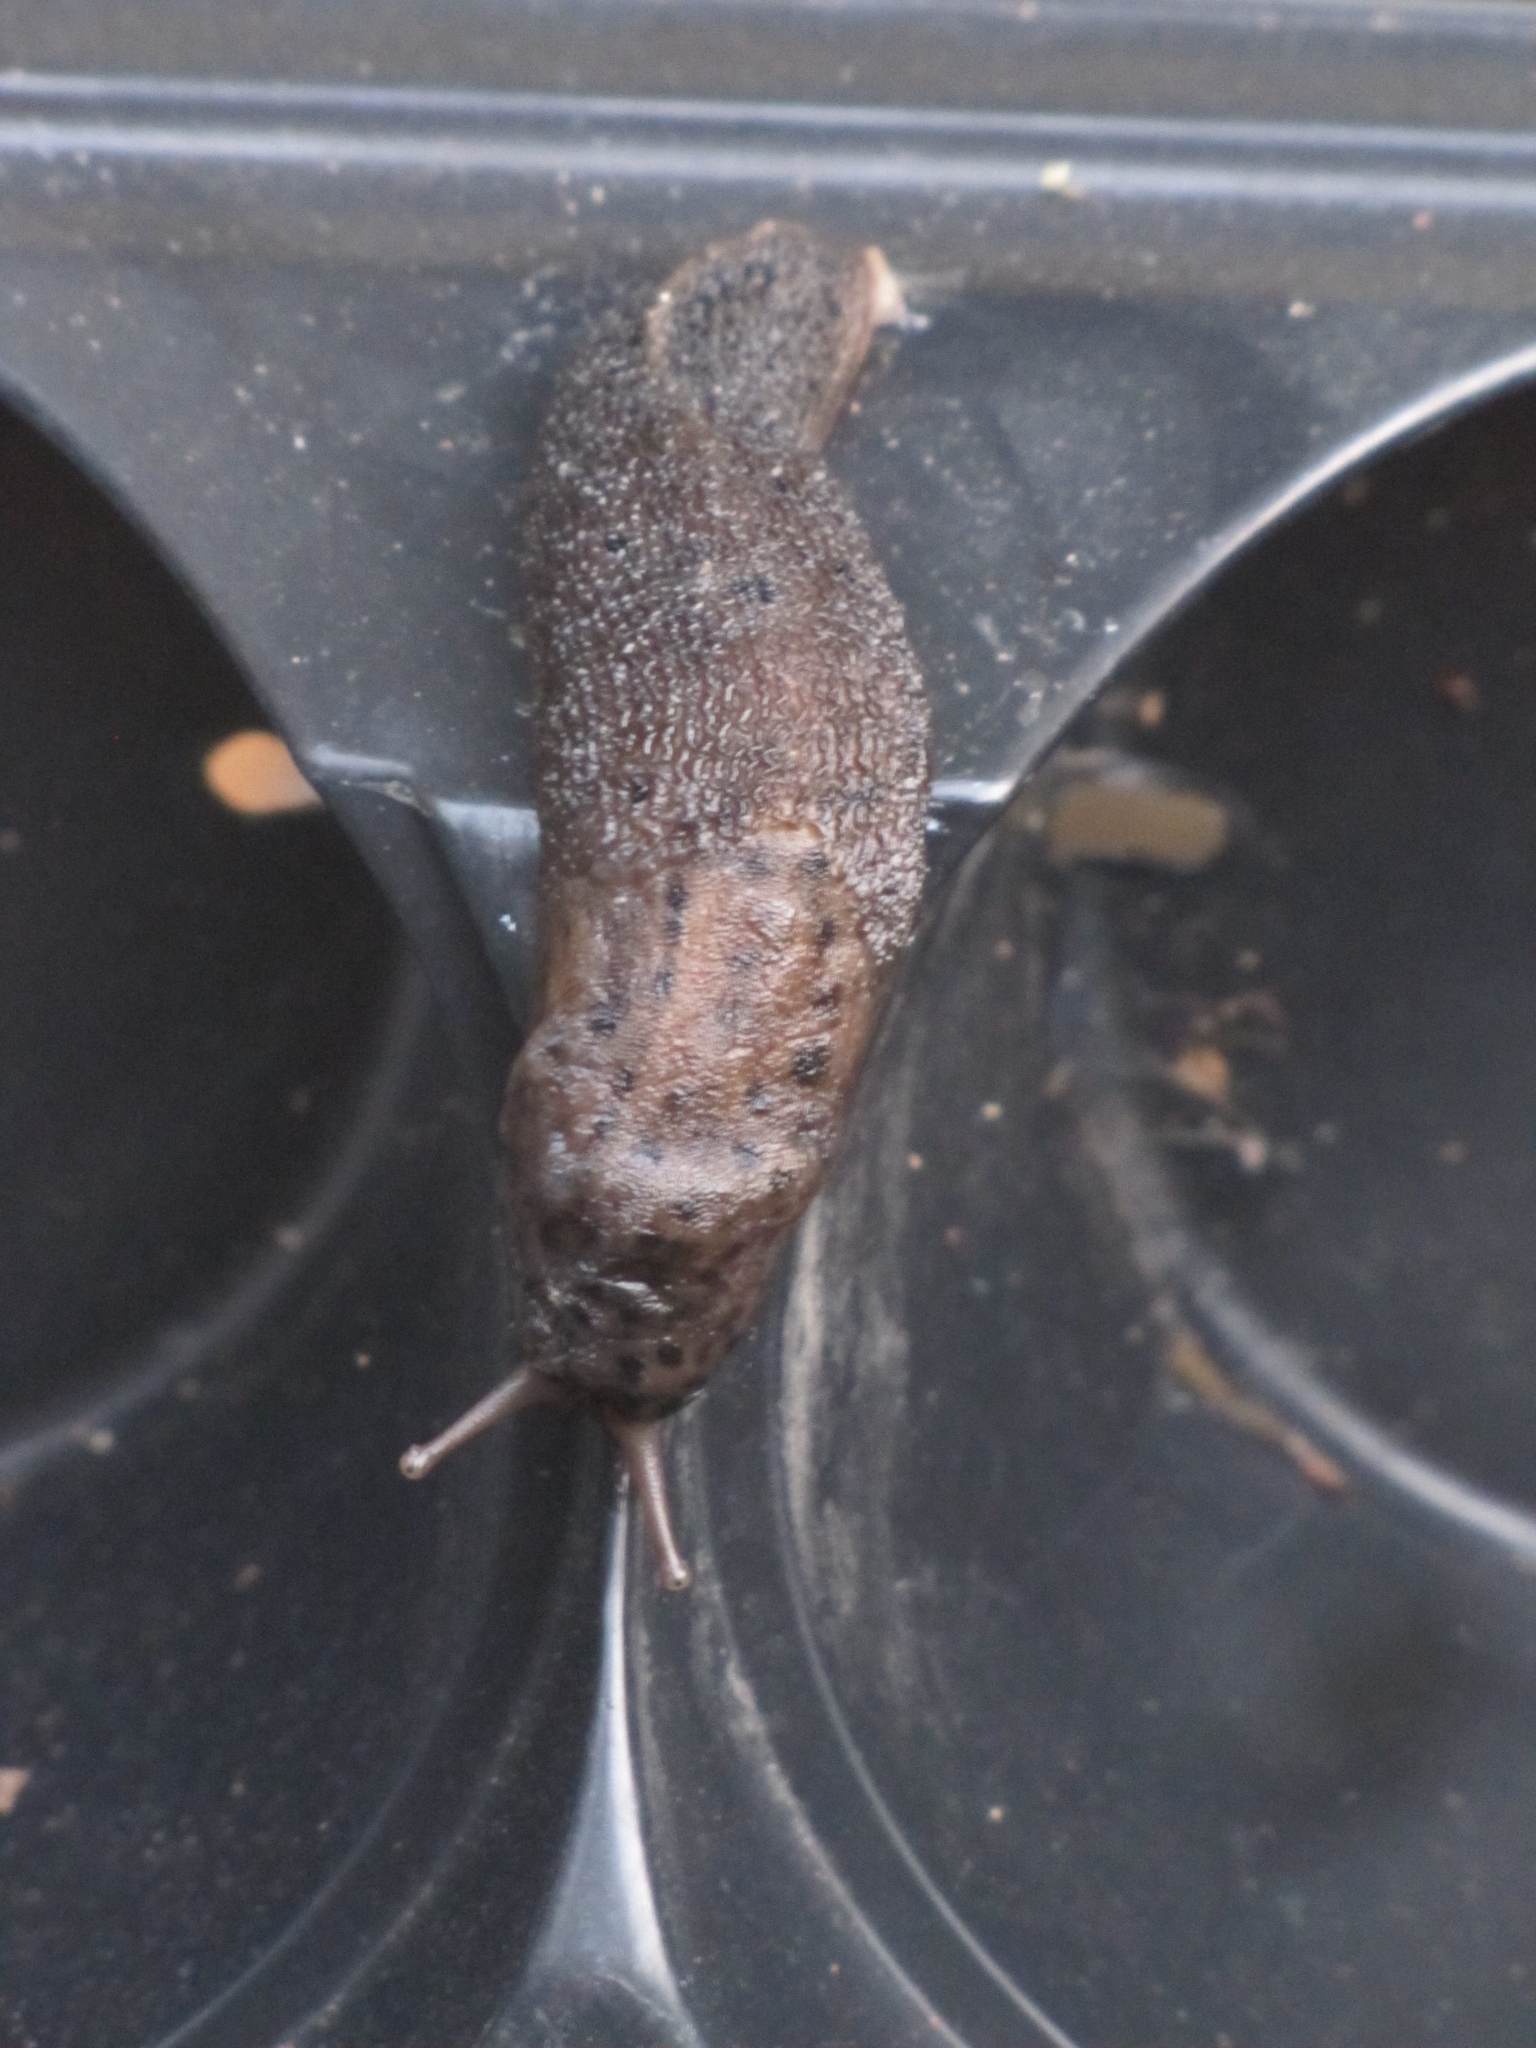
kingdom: Animalia
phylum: Mollusca
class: Gastropoda
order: Stylommatophora
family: Limacidae
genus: Limax
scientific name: Limax maximus
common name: Great grey slug
